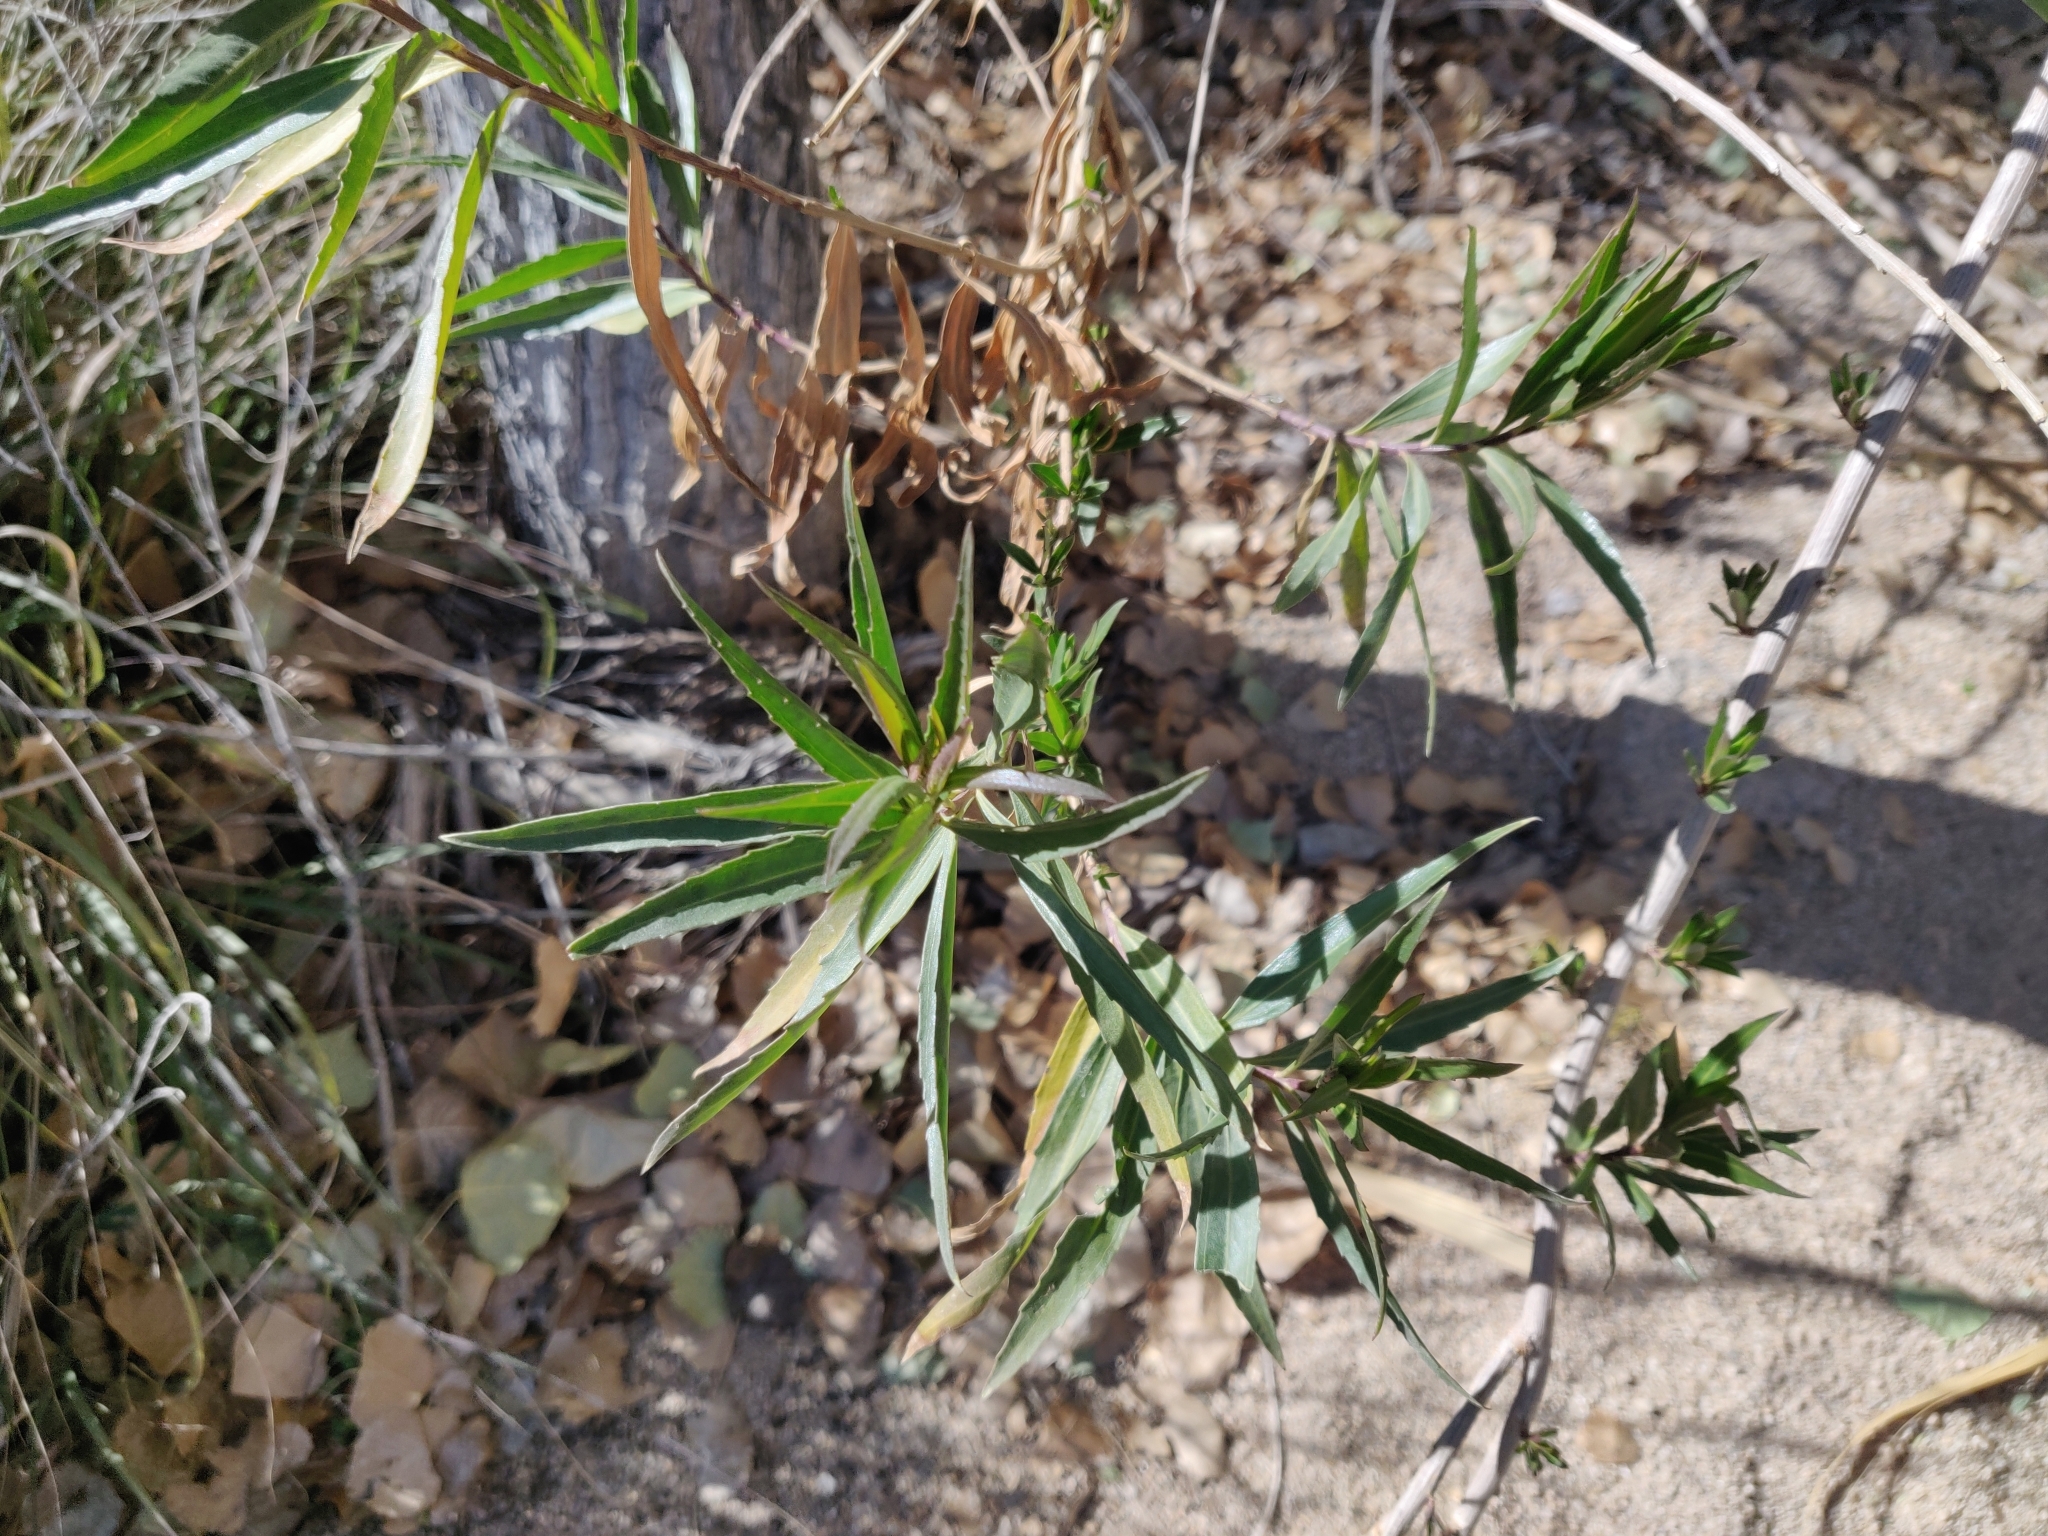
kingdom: Plantae
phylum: Tracheophyta
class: Magnoliopsida
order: Asterales
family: Asteraceae
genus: Baccharis
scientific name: Baccharis salicifolia
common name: Sticky baccharis
